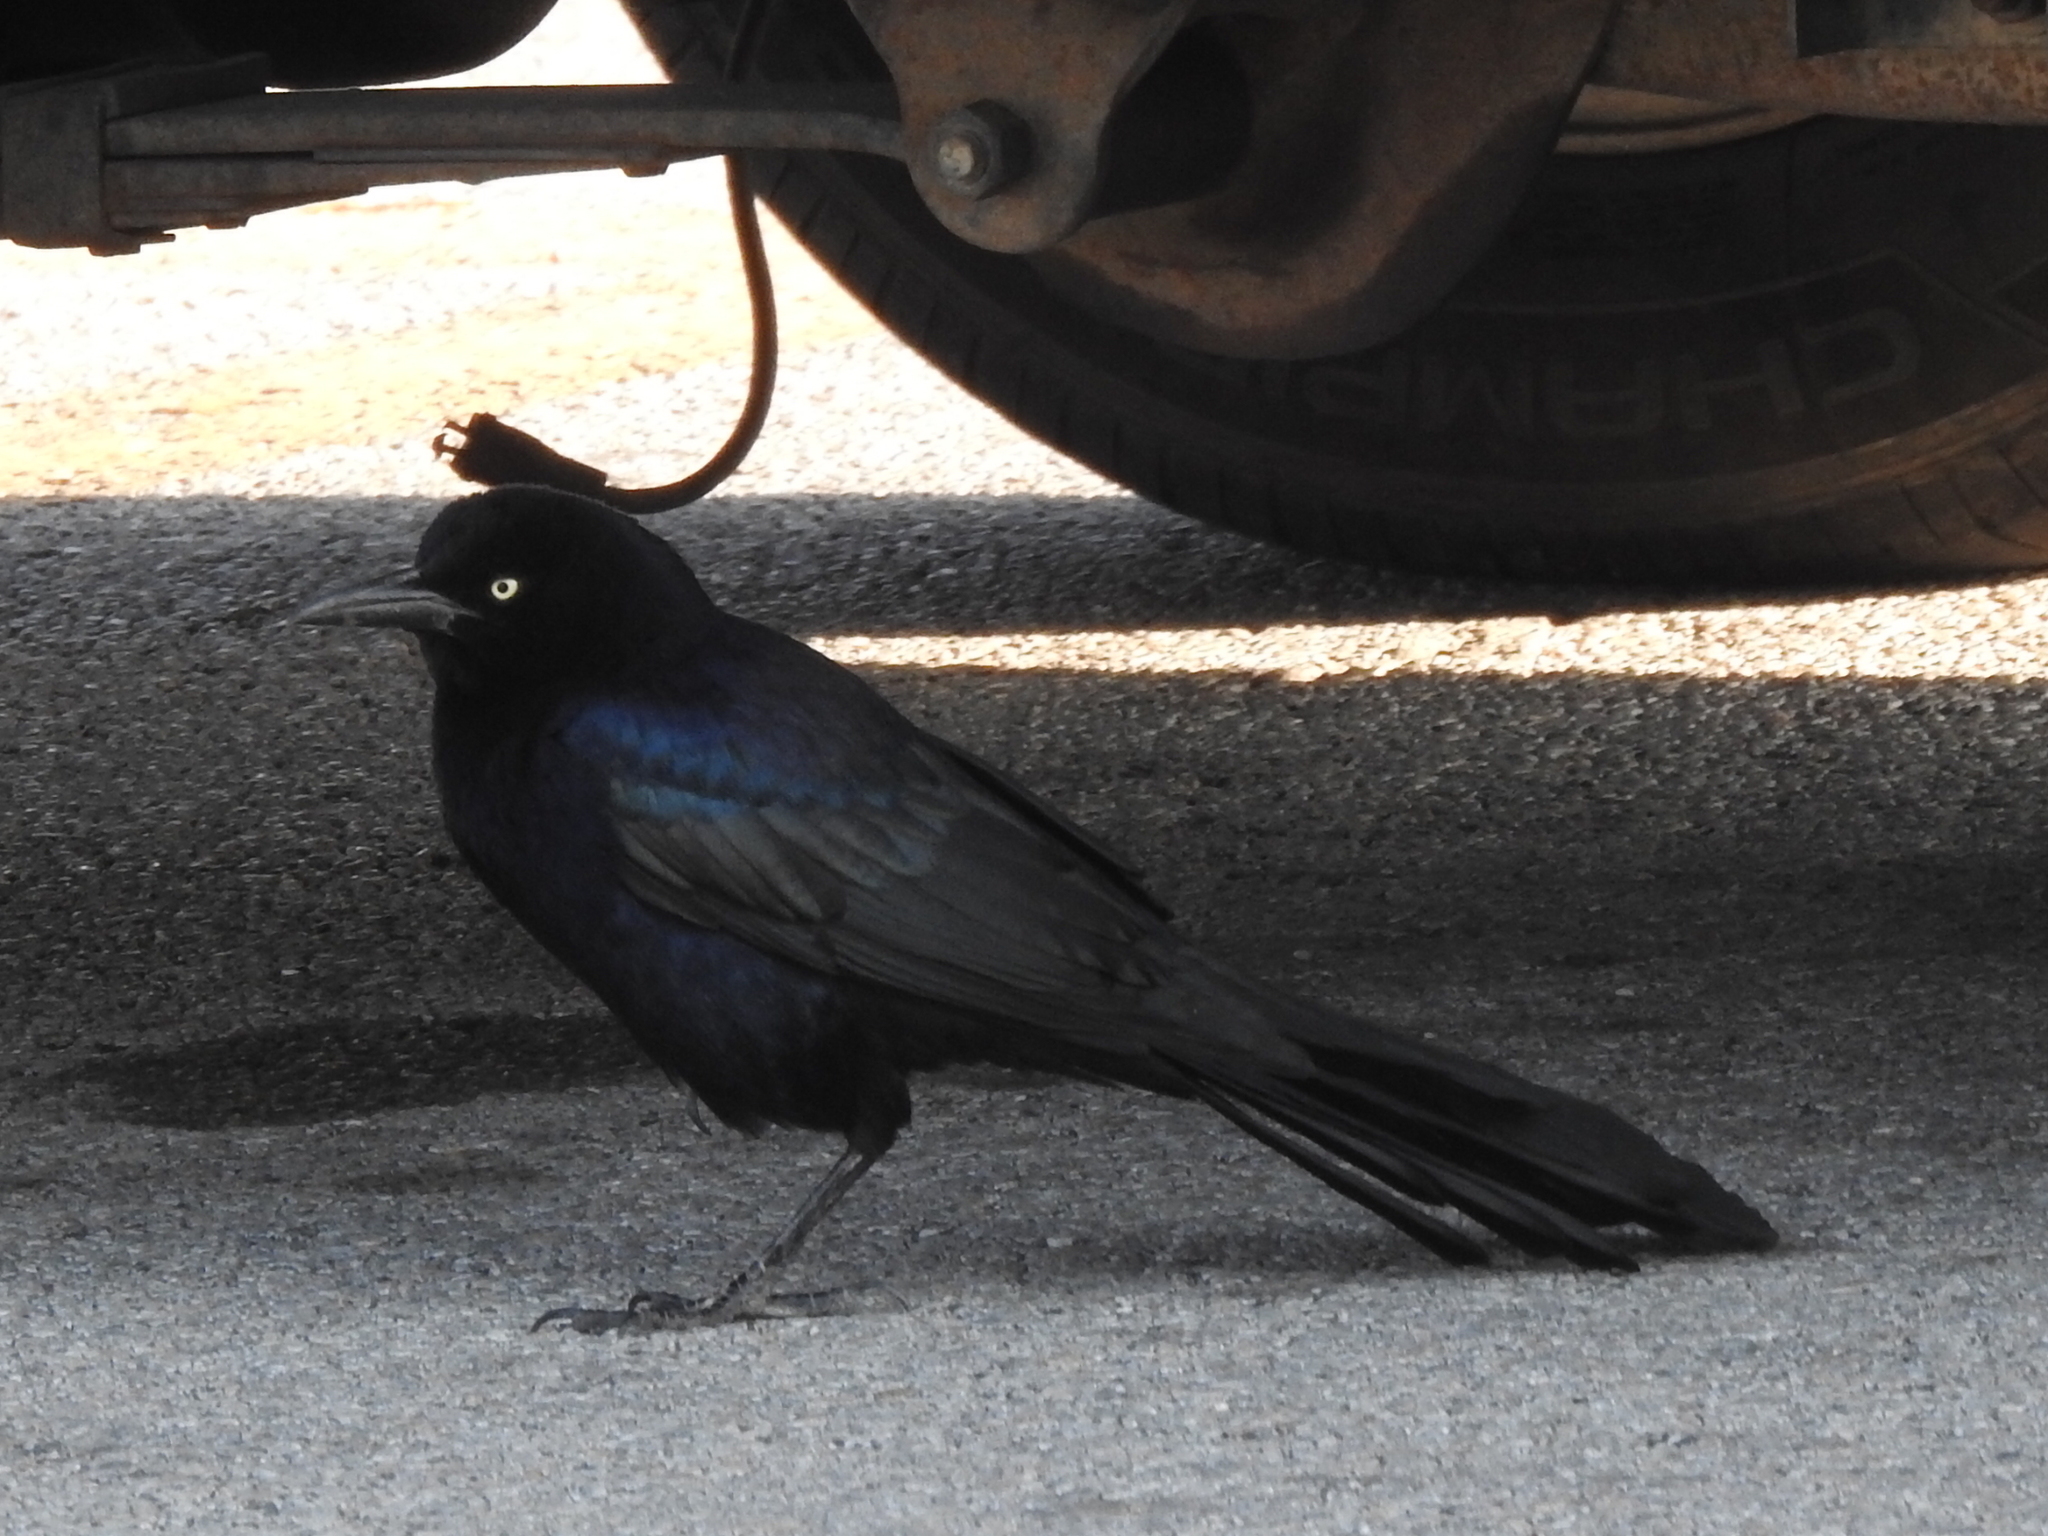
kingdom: Animalia
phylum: Chordata
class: Aves
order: Passeriformes
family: Icteridae
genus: Quiscalus
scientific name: Quiscalus mexicanus
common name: Great-tailed grackle
